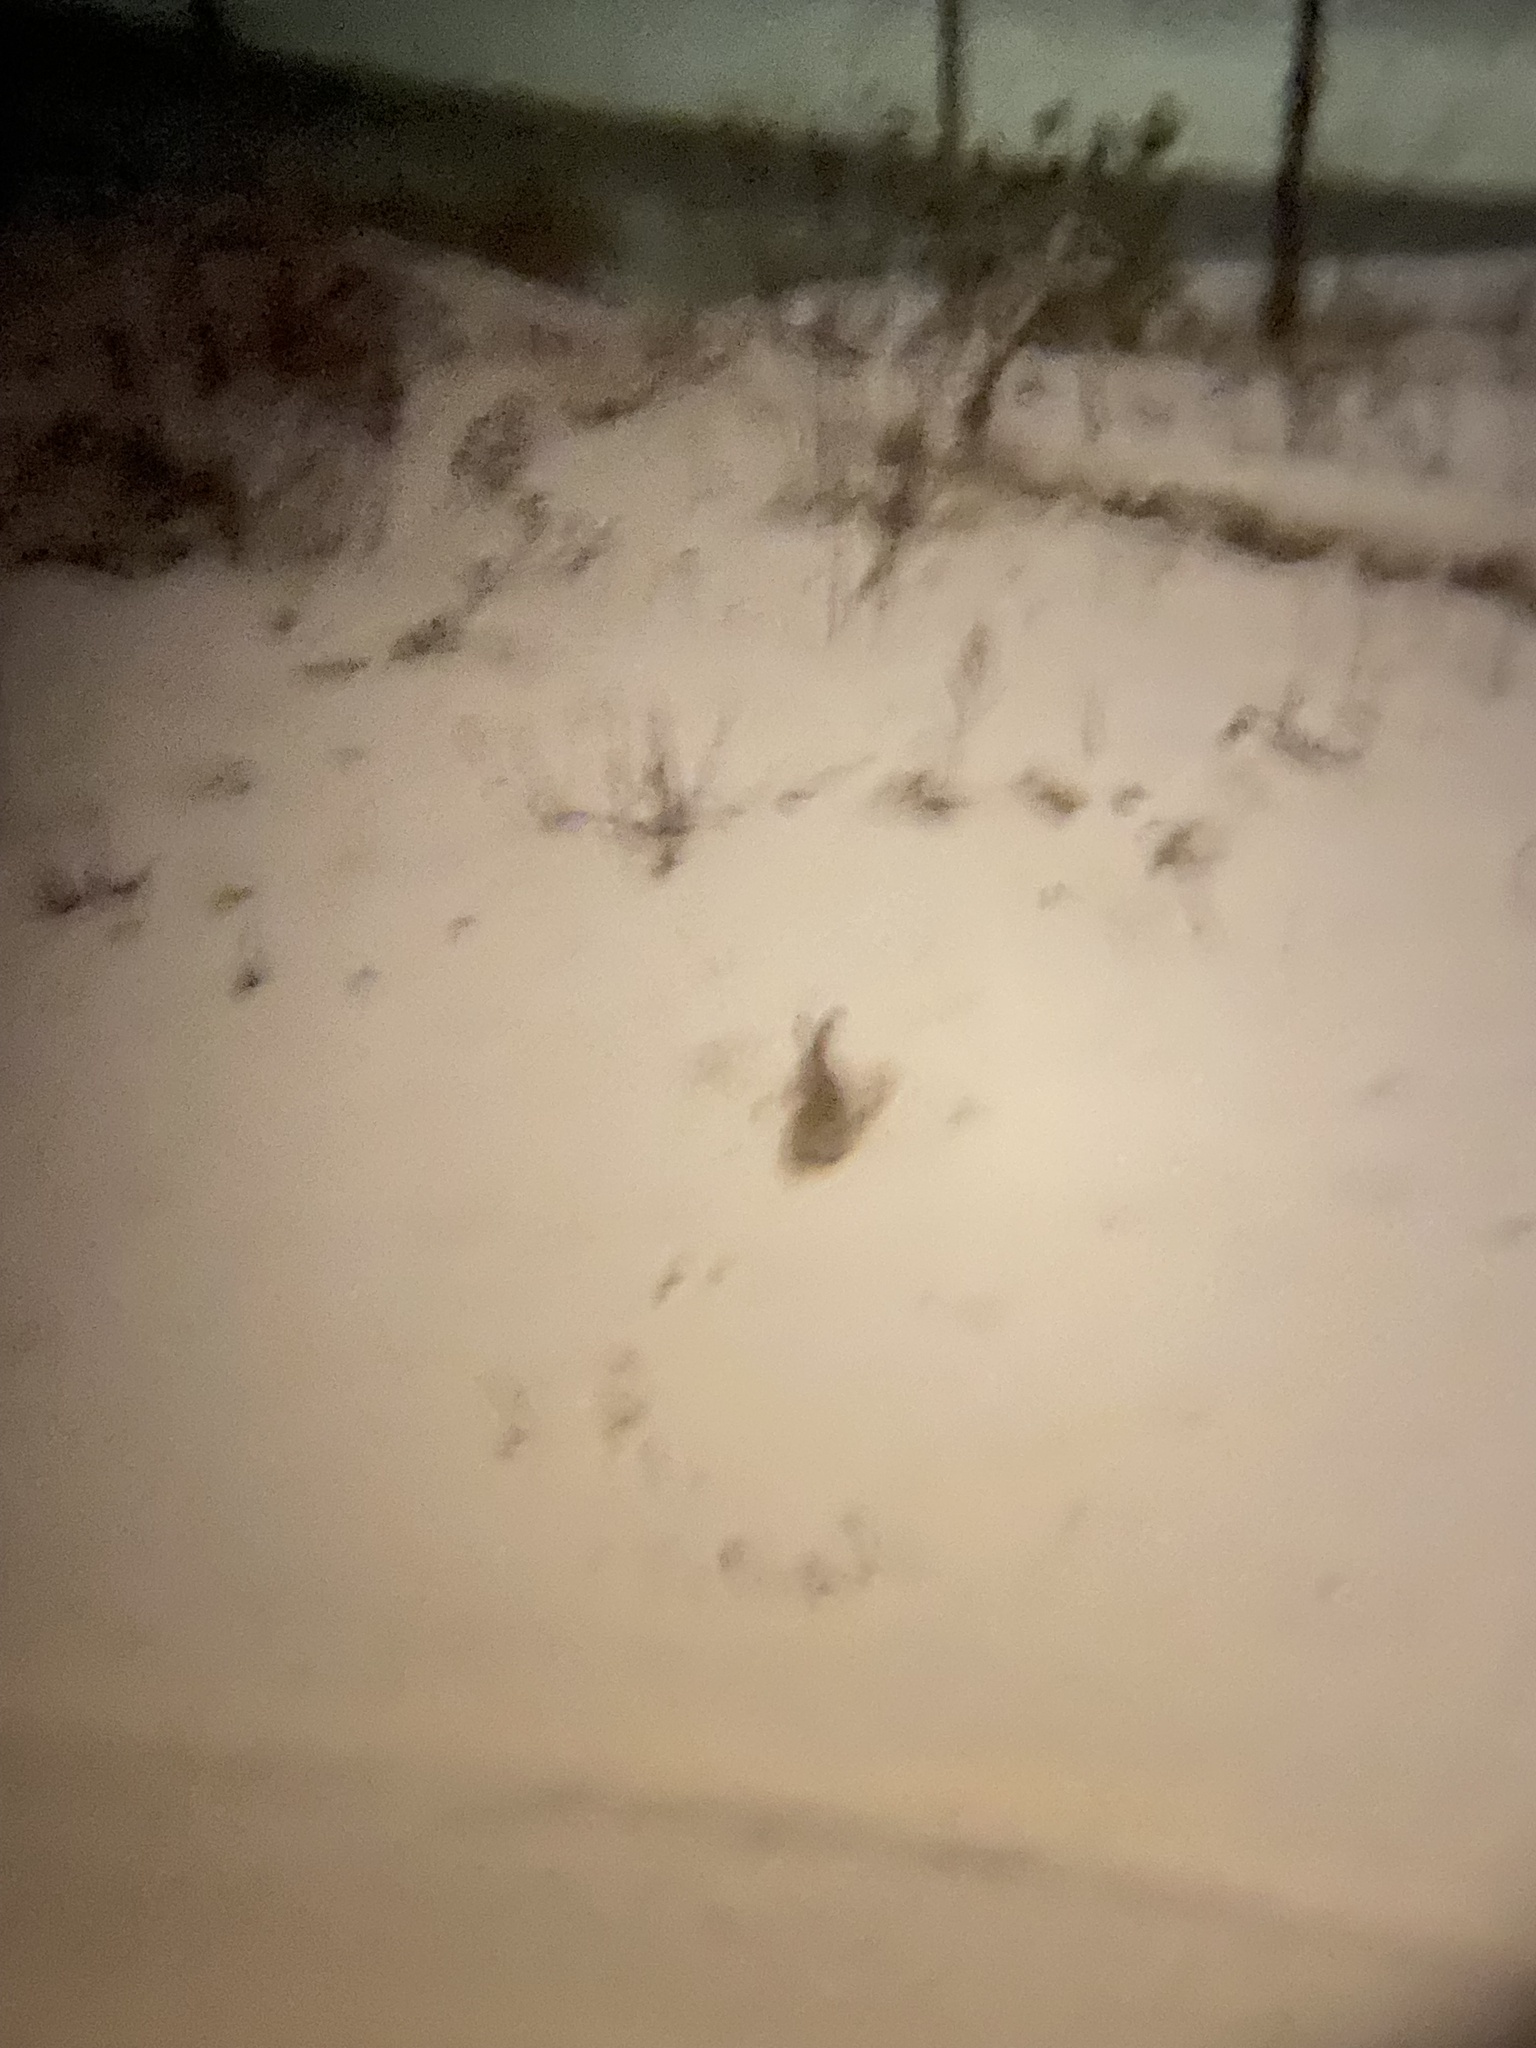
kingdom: Animalia
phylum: Chordata
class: Mammalia
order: Lagomorpha
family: Leporidae
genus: Lepus
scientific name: Lepus europaeus
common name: European hare
